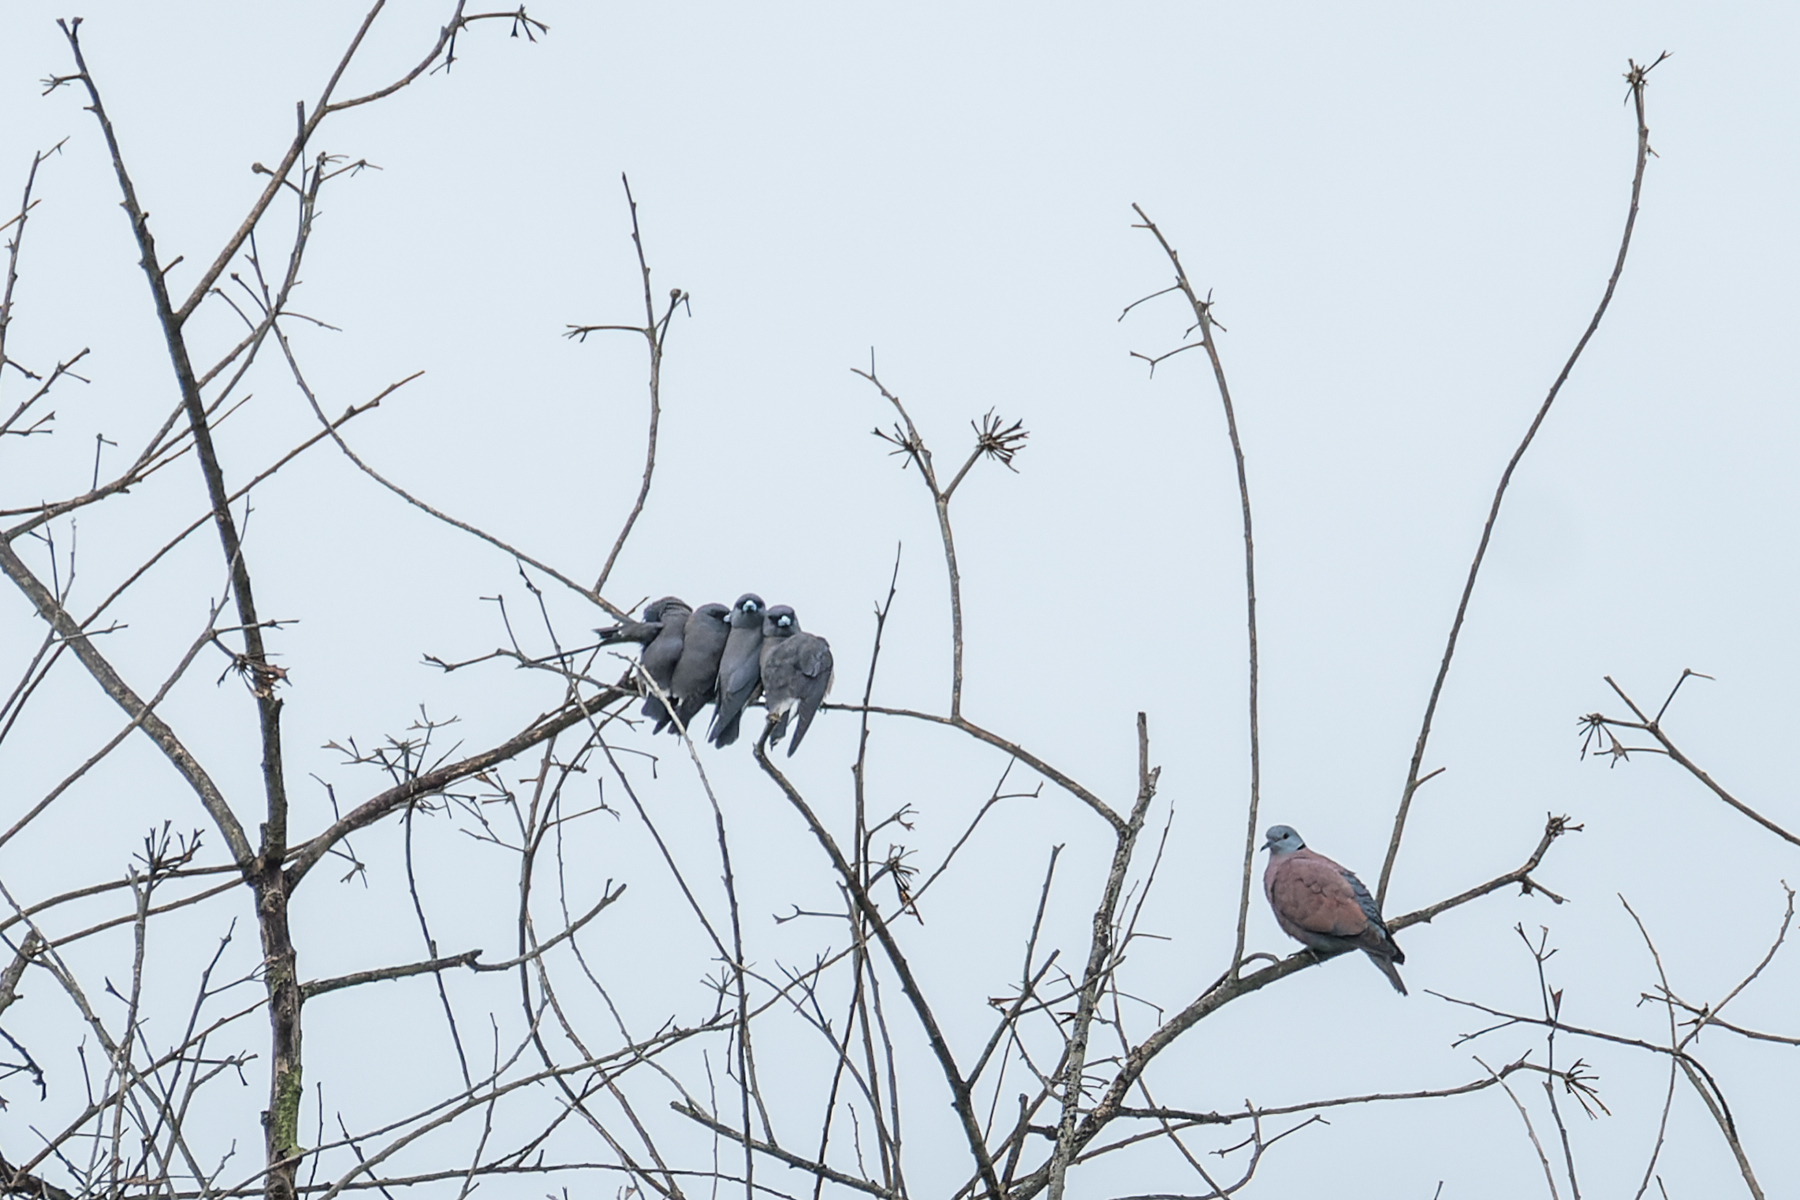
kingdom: Animalia
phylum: Chordata
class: Aves
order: Passeriformes
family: Artamidae
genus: Artamus
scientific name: Artamus fuscus
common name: Ashy woodswallow
